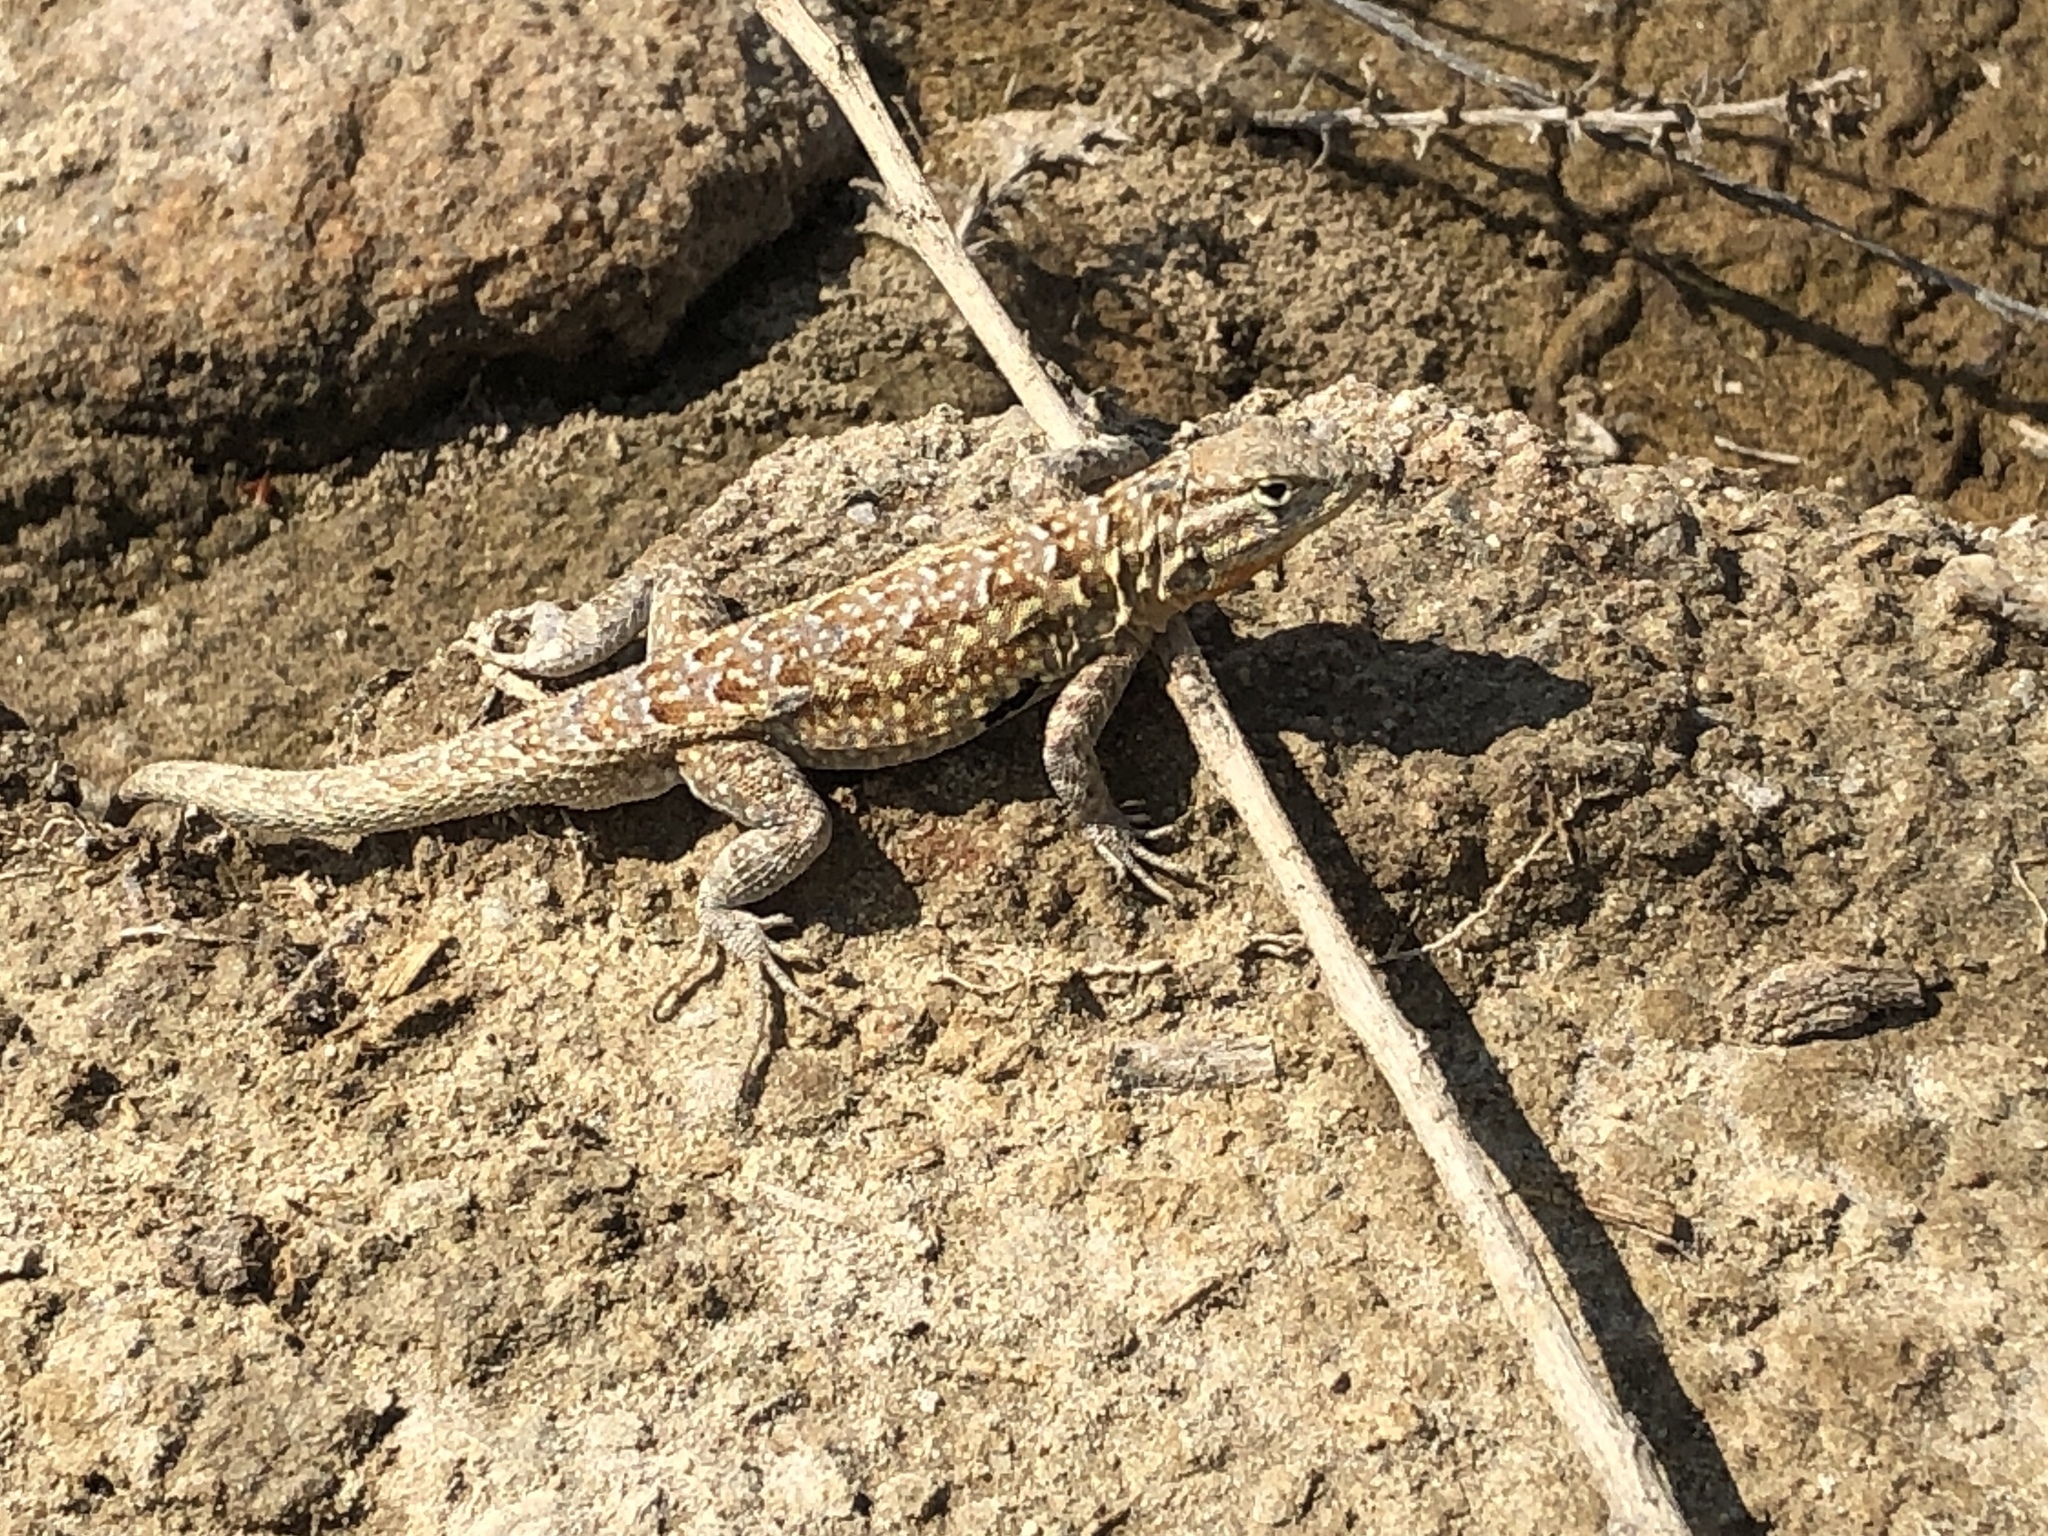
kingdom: Animalia
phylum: Chordata
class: Squamata
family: Phrynosomatidae
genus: Uta
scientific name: Uta stansburiana
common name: Side-blotched lizard
